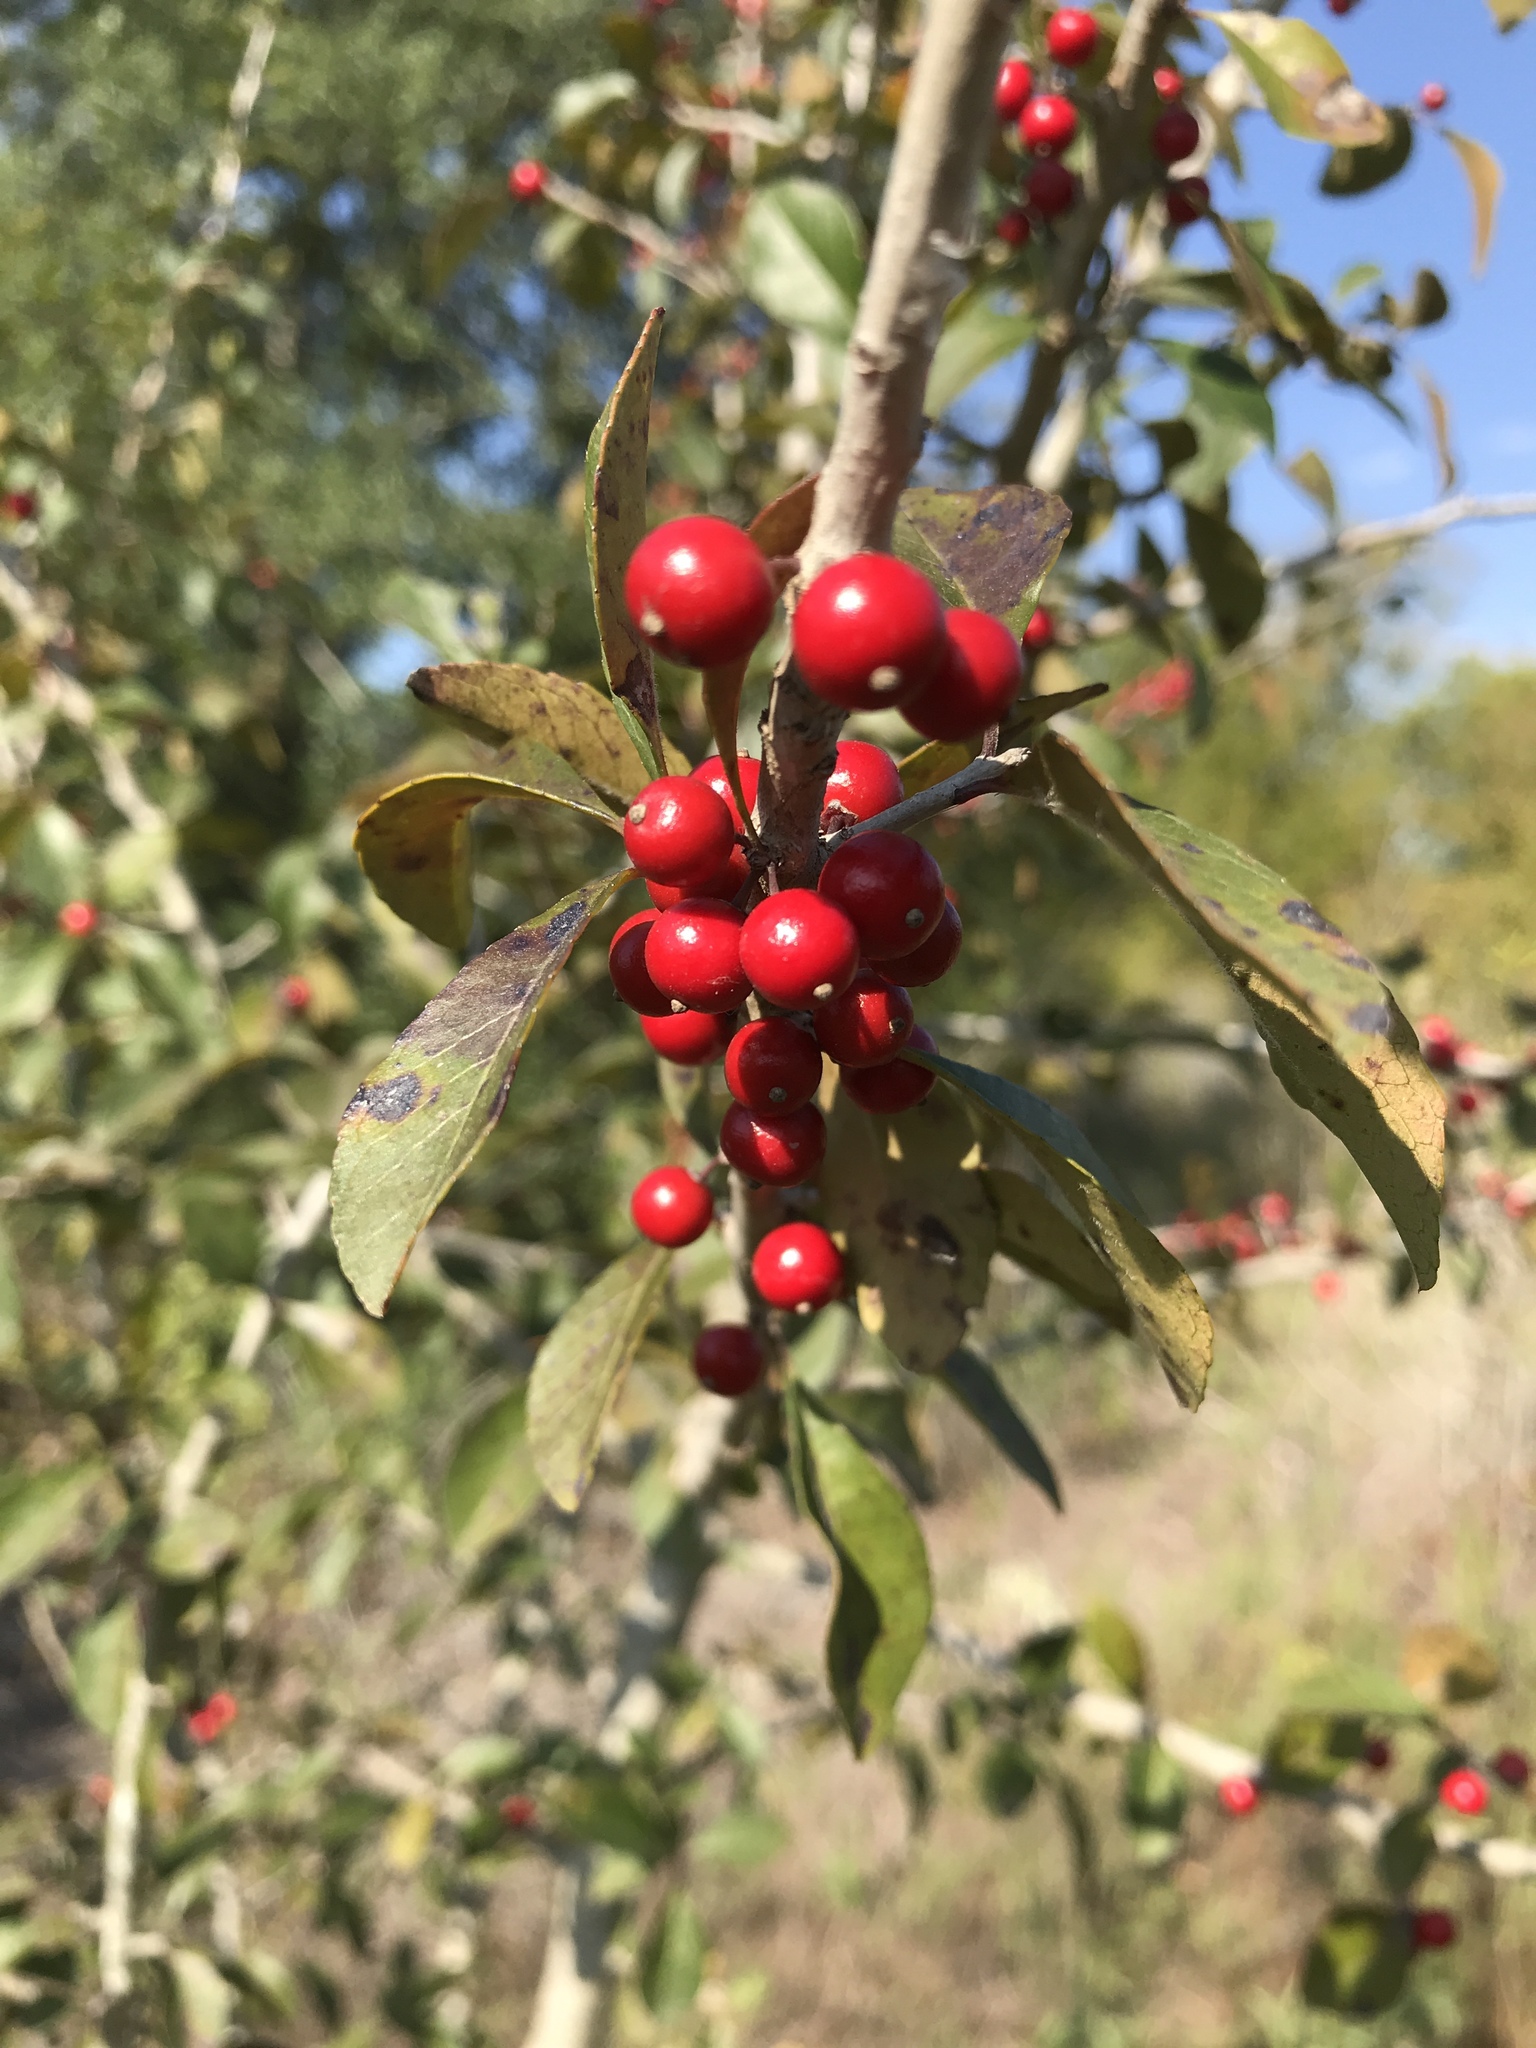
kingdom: Plantae
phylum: Tracheophyta
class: Magnoliopsida
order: Aquifoliales
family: Aquifoliaceae
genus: Ilex
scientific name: Ilex decidua
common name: Possum-haw
